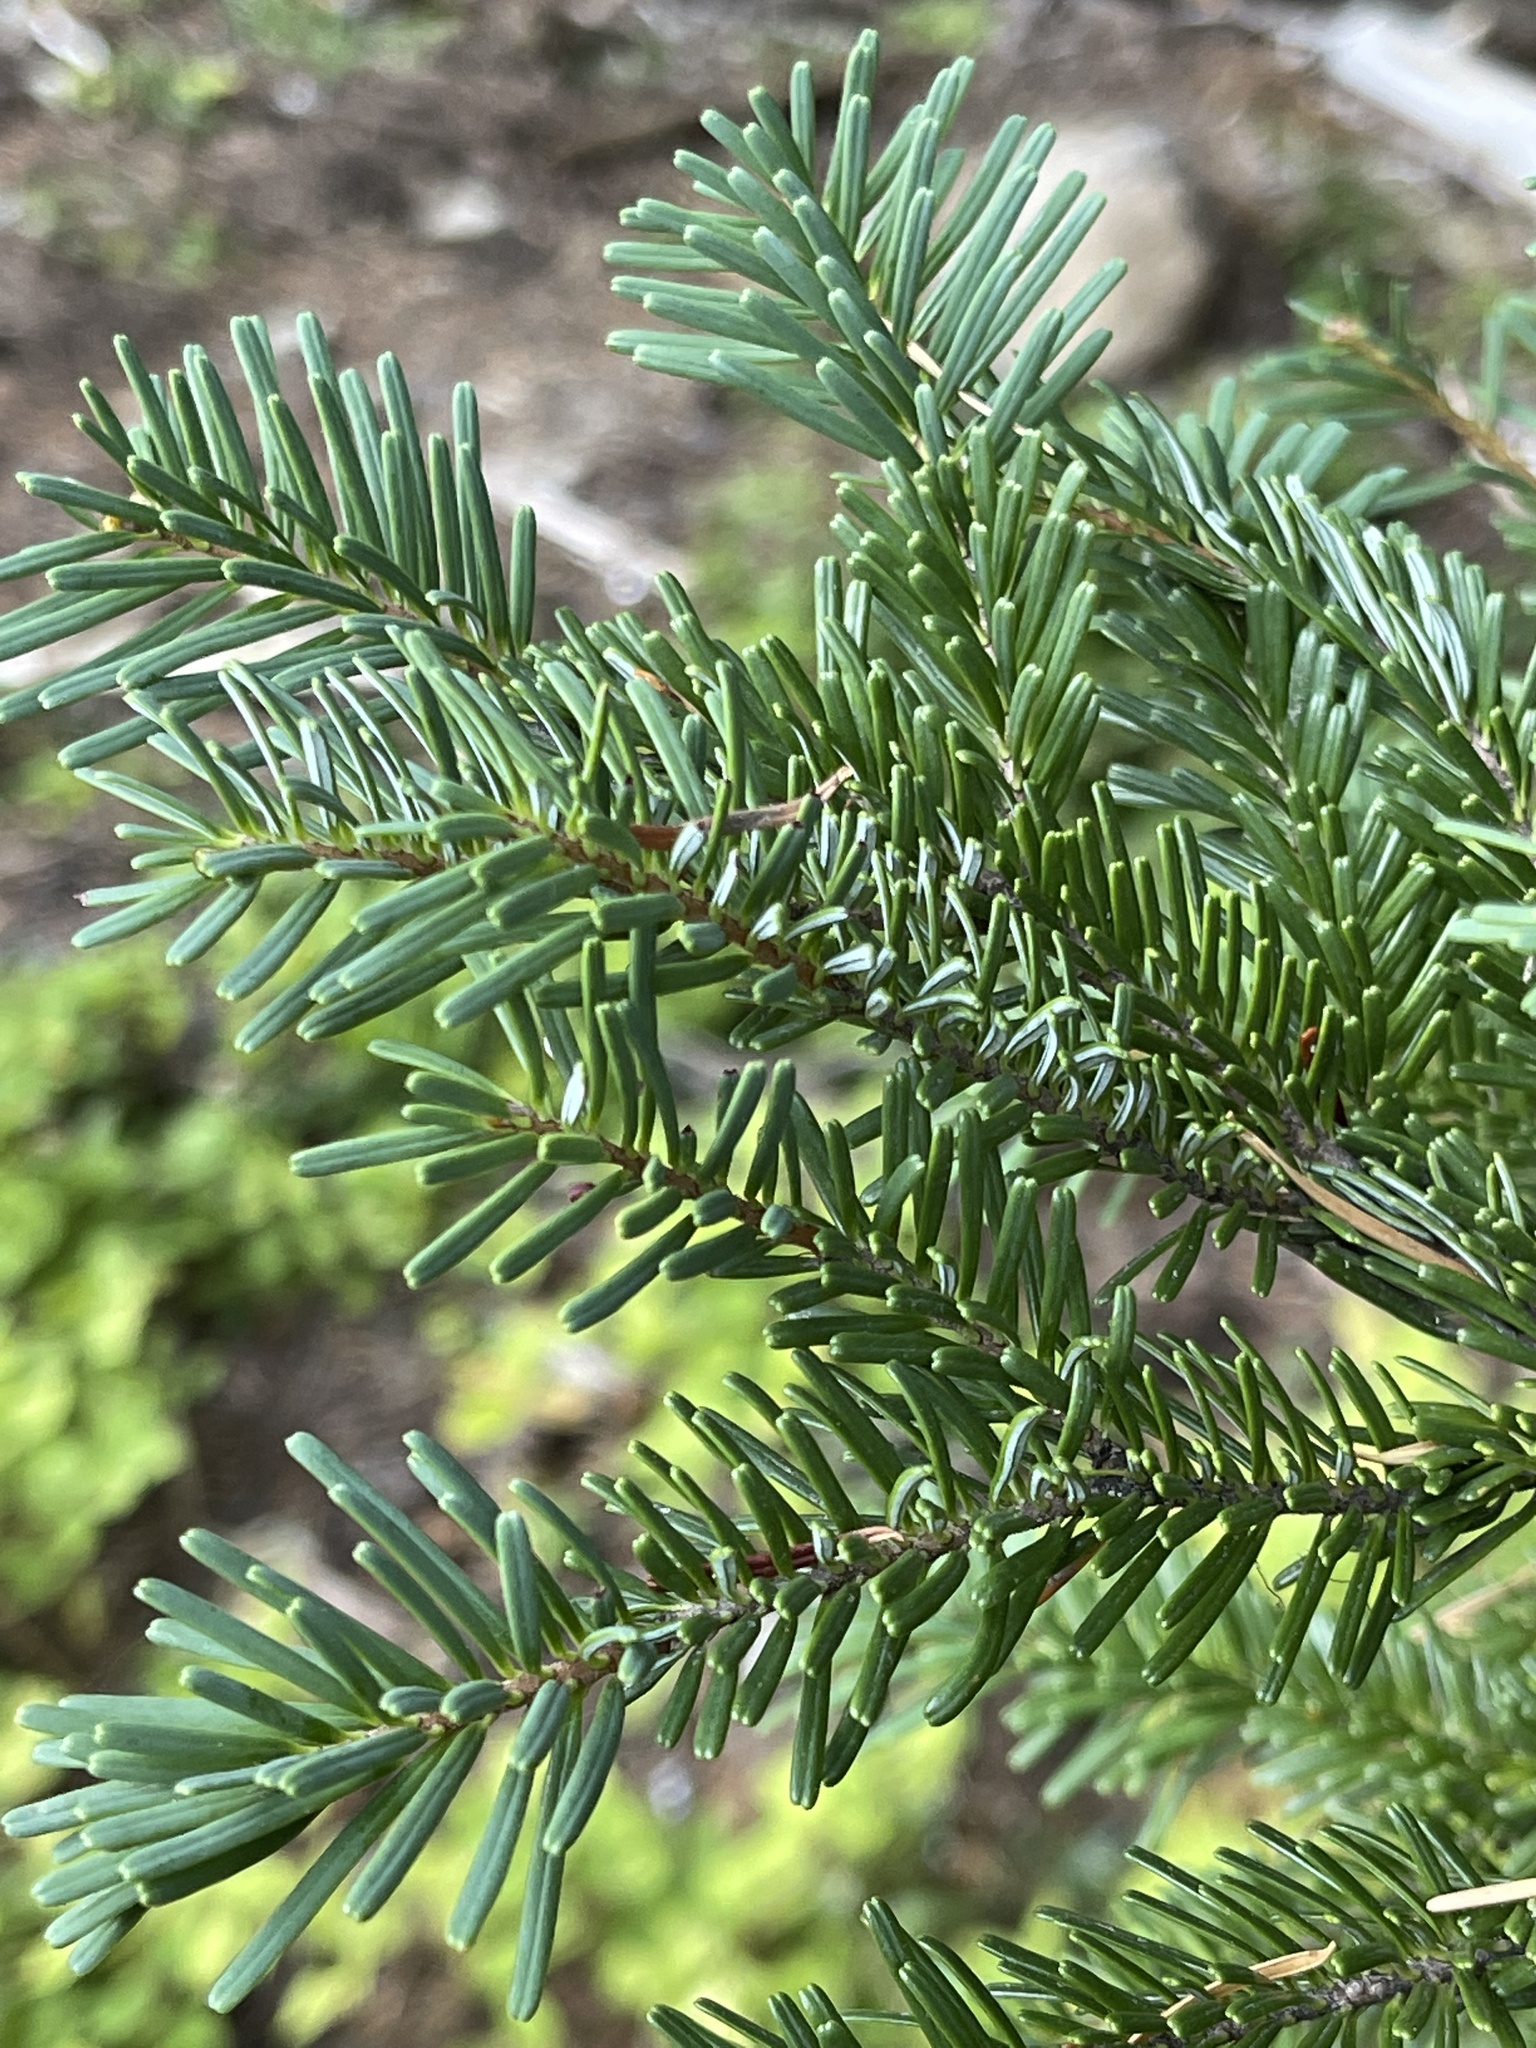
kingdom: Plantae
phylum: Tracheophyta
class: Pinopsida
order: Pinales
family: Pinaceae
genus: Abies
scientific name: Abies amabilis
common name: Pacific silver fir
